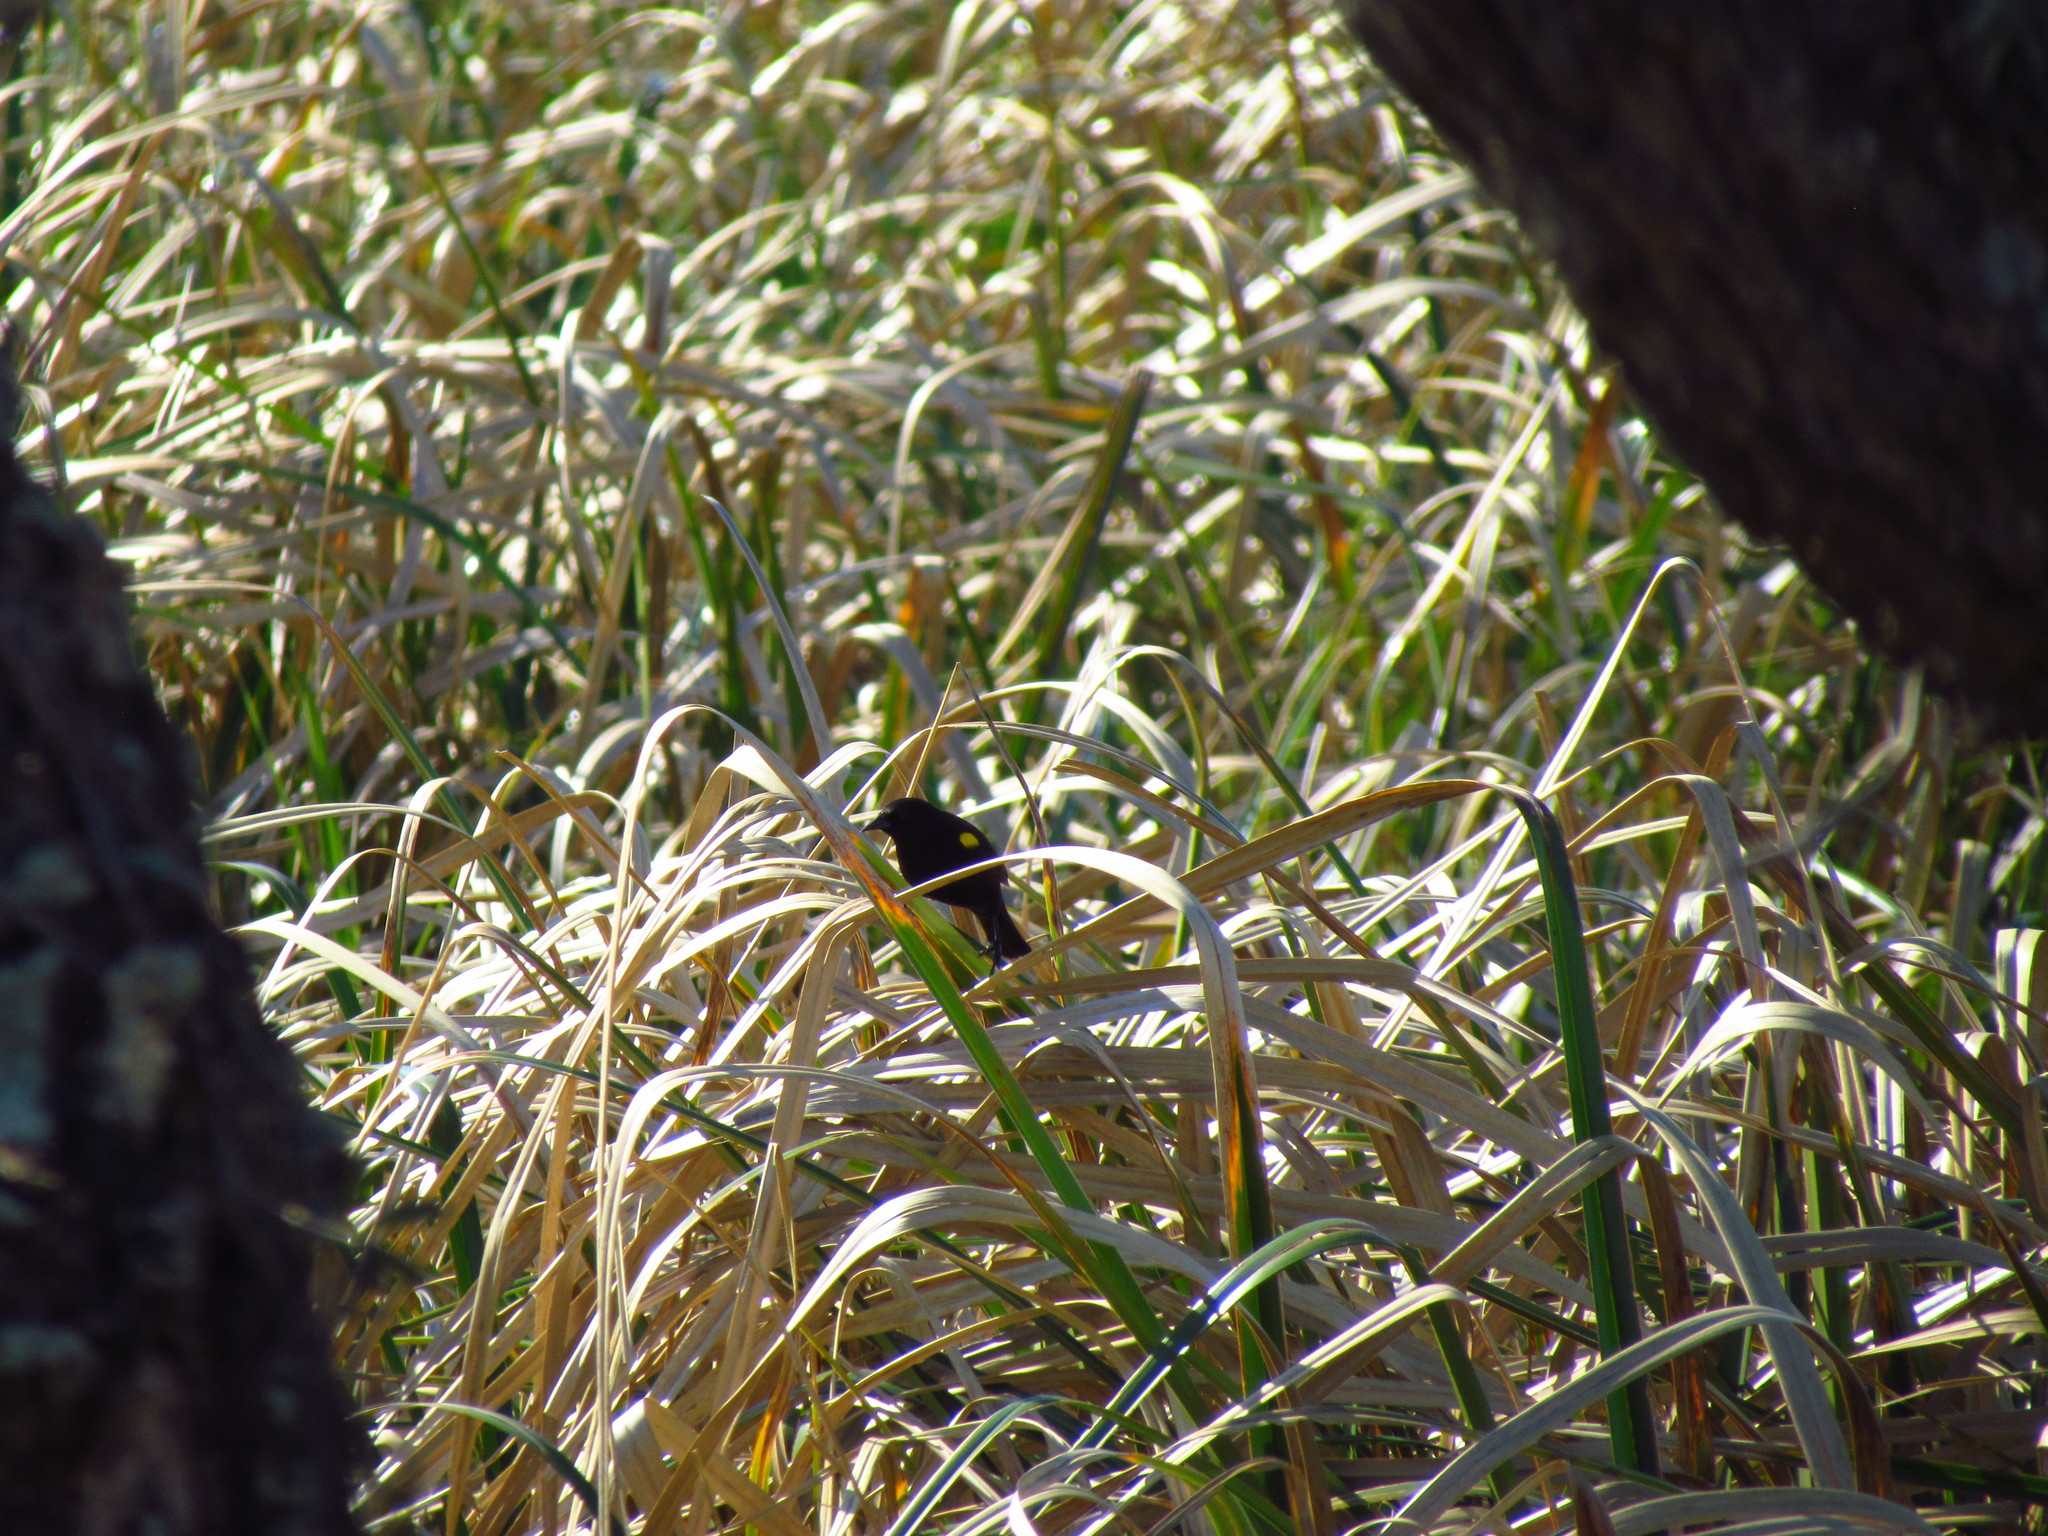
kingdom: Animalia
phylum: Chordata
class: Aves
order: Passeriformes
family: Icteridae
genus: Agelasticus
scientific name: Agelasticus thilius
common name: Yellow-winged blackbird
